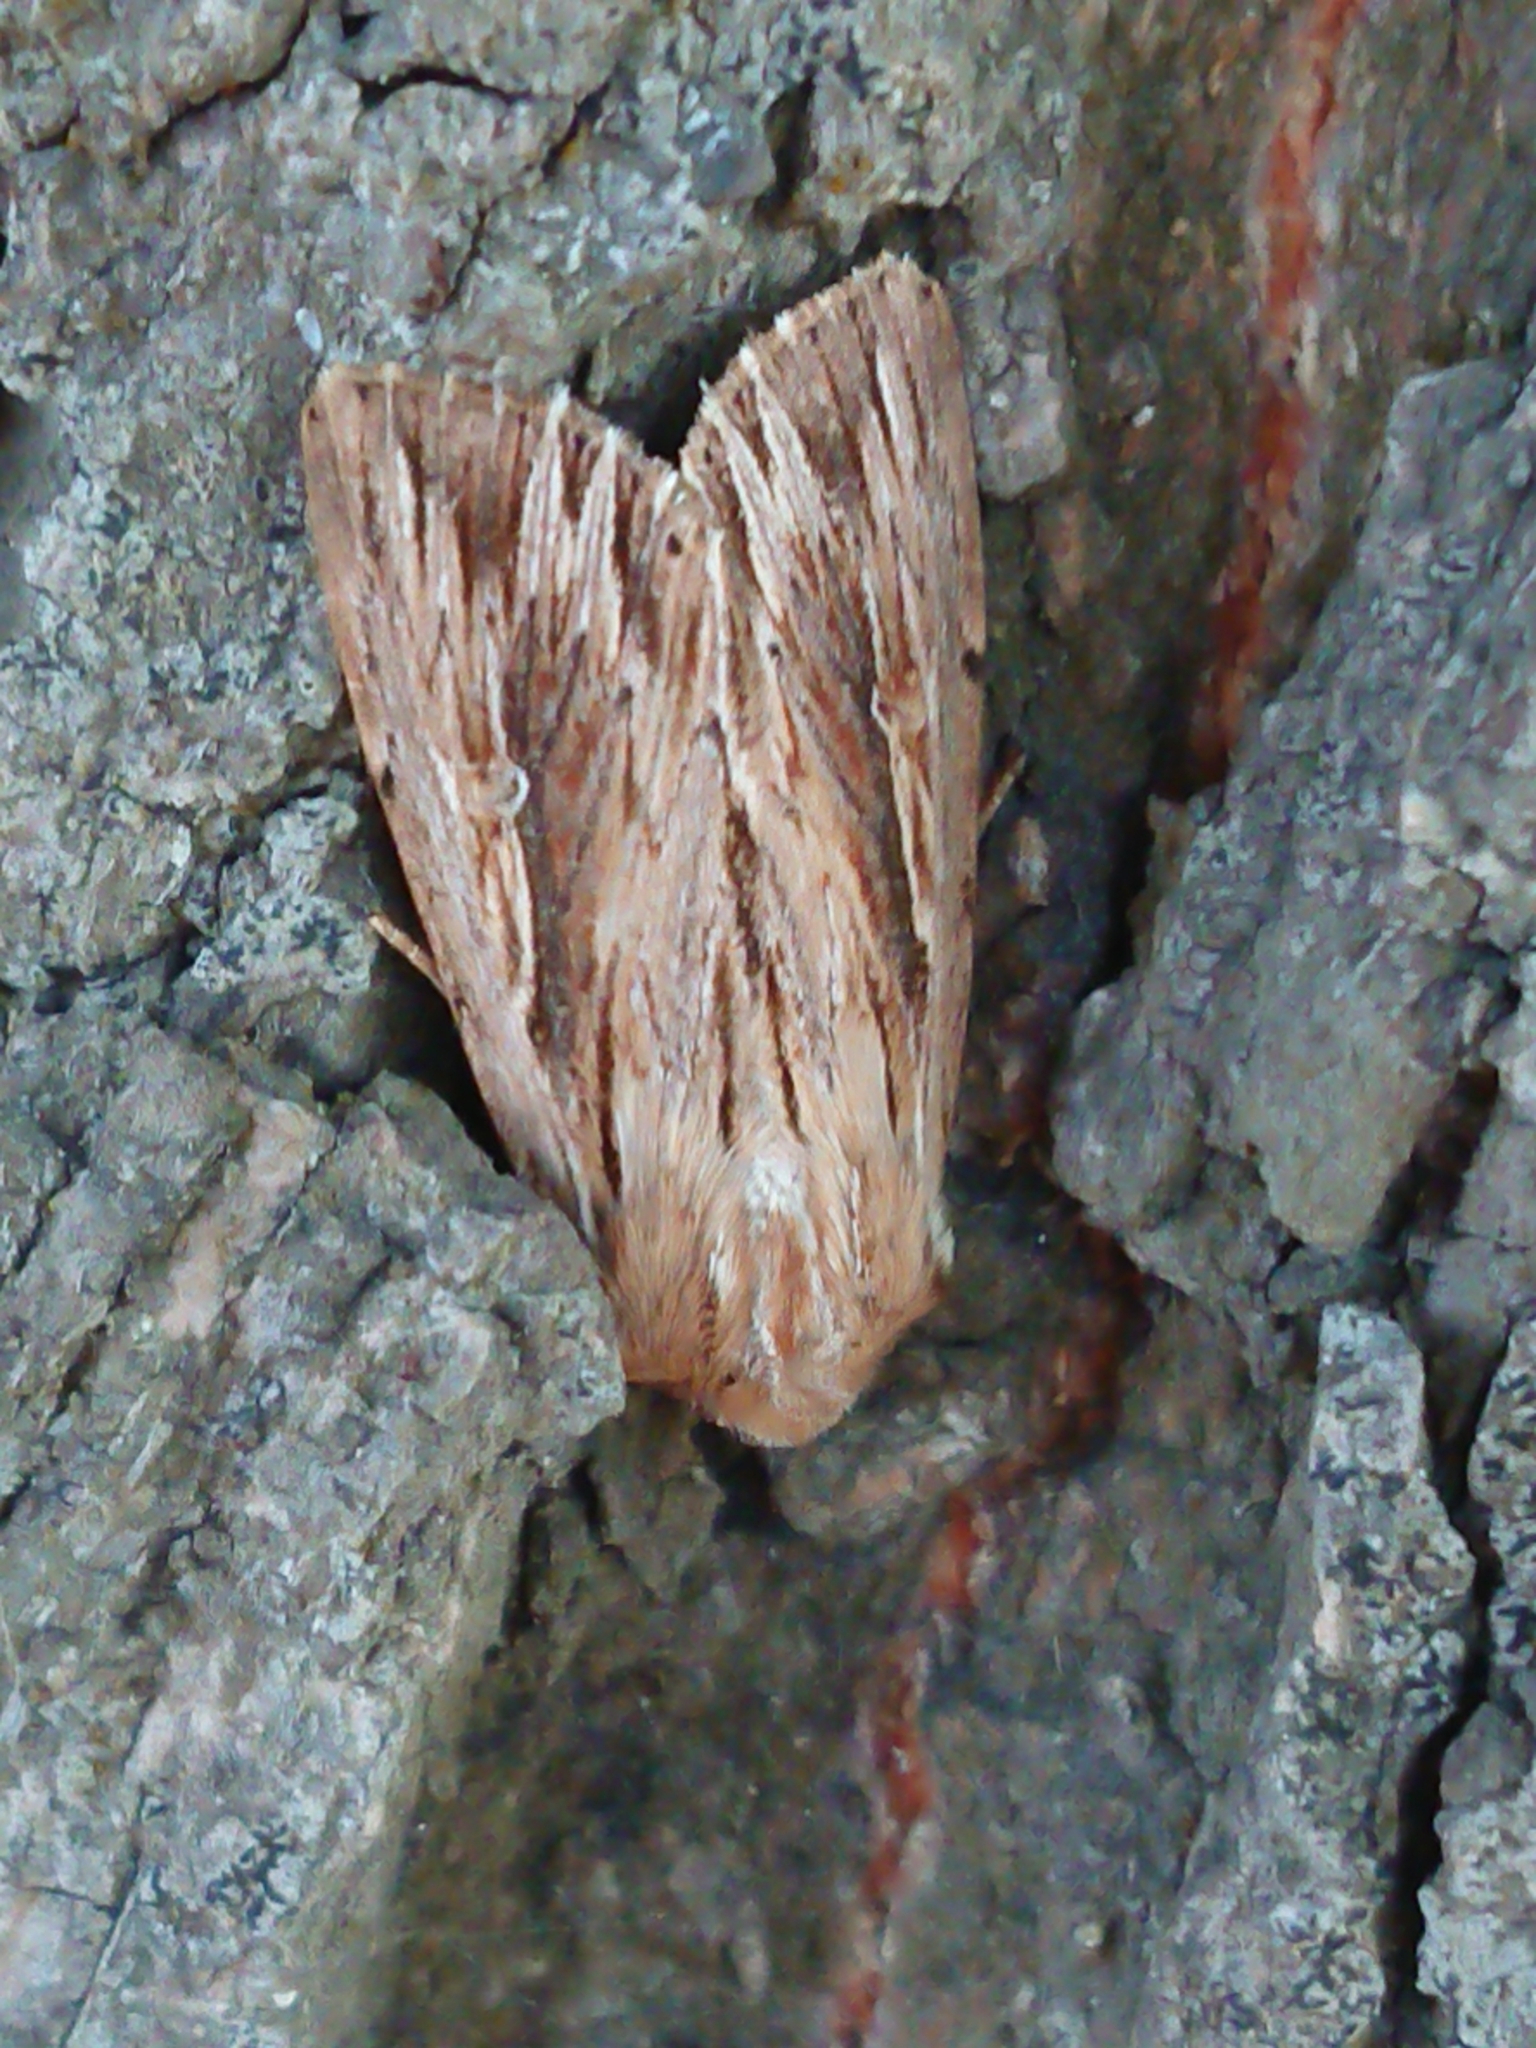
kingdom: Animalia
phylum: Arthropoda
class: Insecta
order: Lepidoptera
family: Noctuidae
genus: Persectania
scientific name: Persectania aversa
